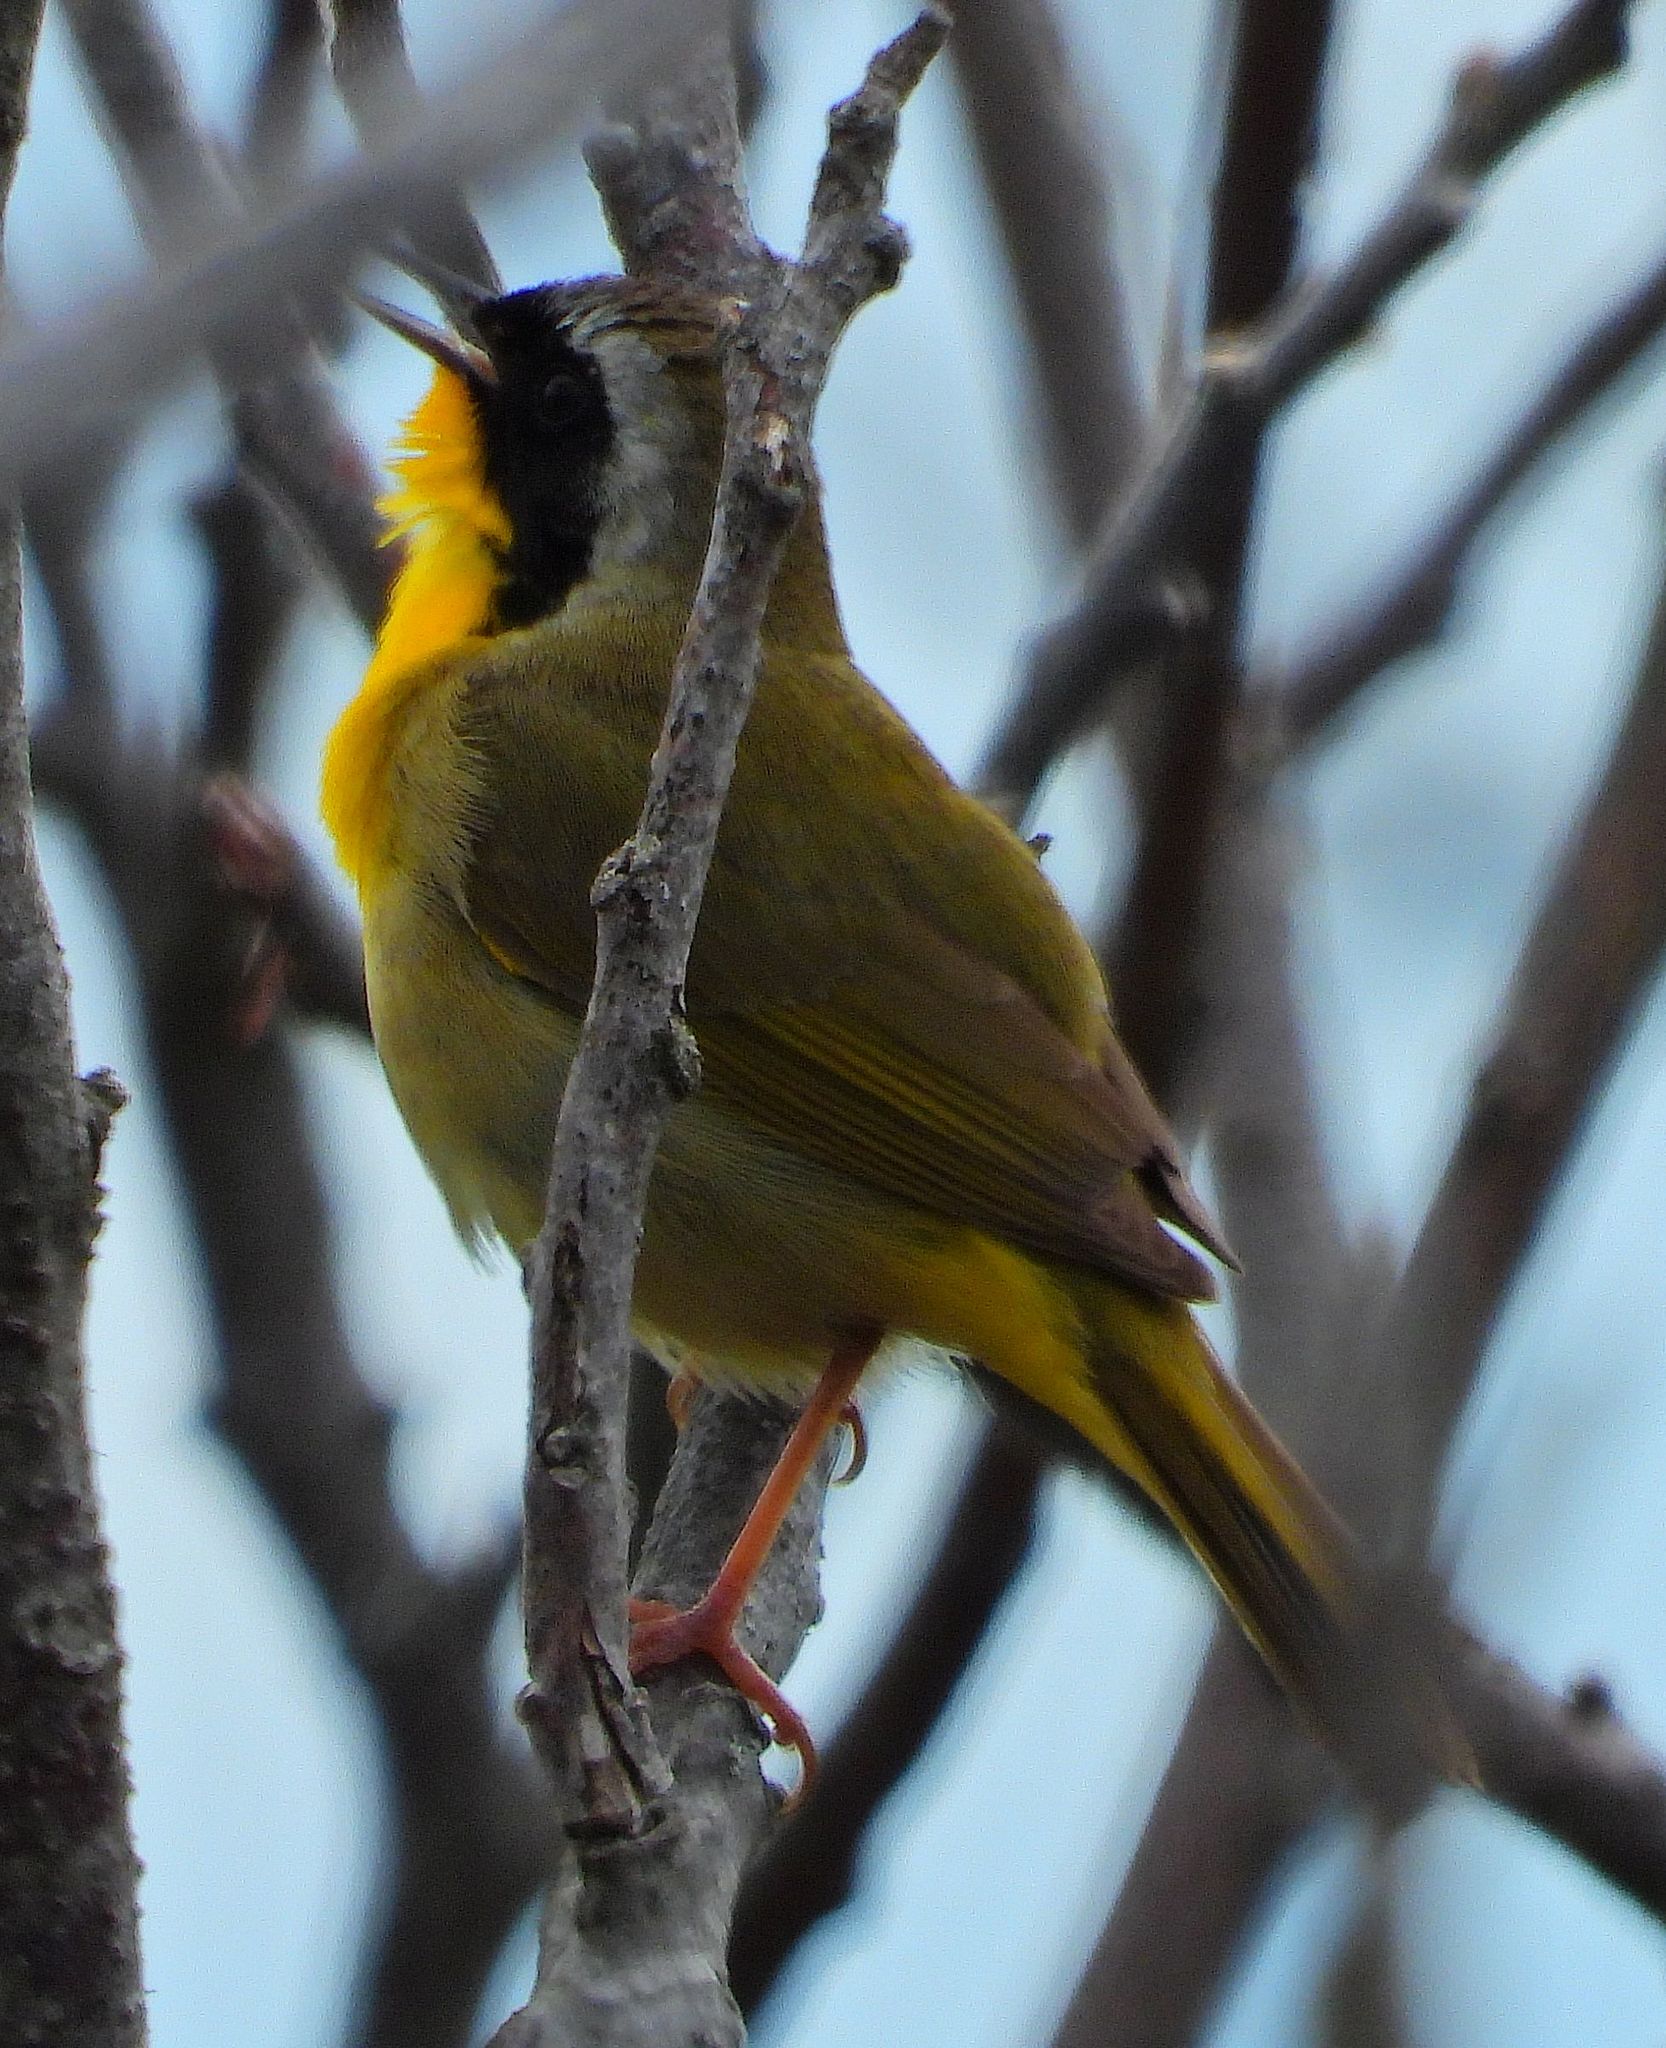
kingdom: Animalia
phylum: Chordata
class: Aves
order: Passeriformes
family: Parulidae
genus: Geothlypis
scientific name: Geothlypis trichas
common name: Common yellowthroat
